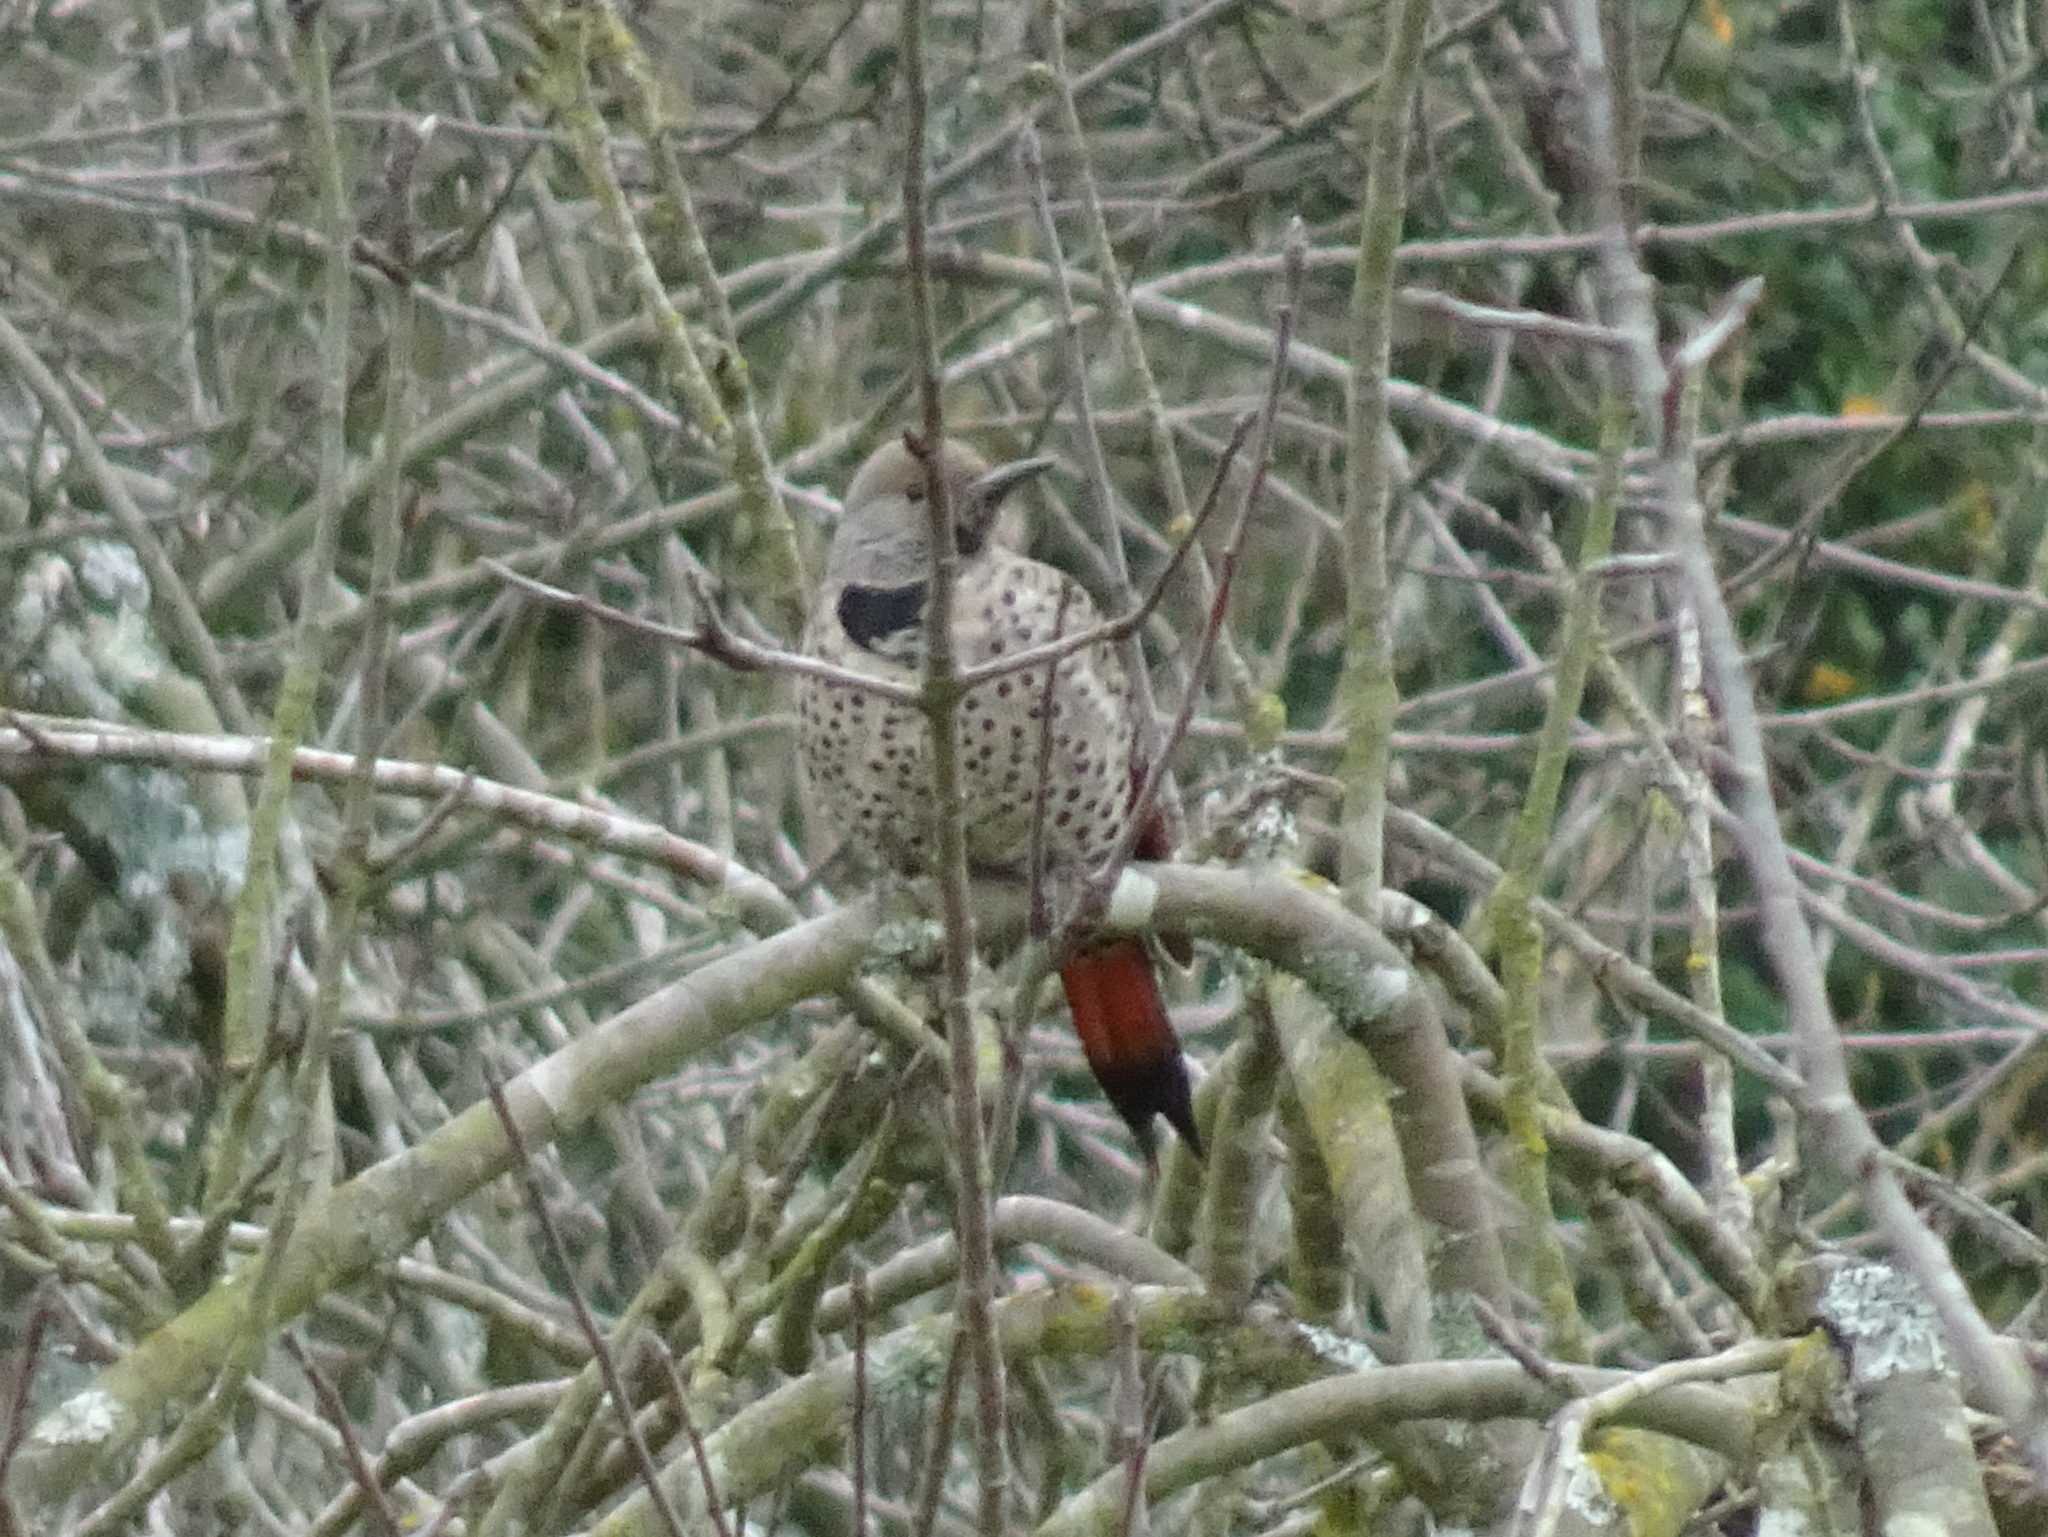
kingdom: Animalia
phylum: Chordata
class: Aves
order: Piciformes
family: Picidae
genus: Colaptes
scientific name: Colaptes auratus
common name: Northern flicker
